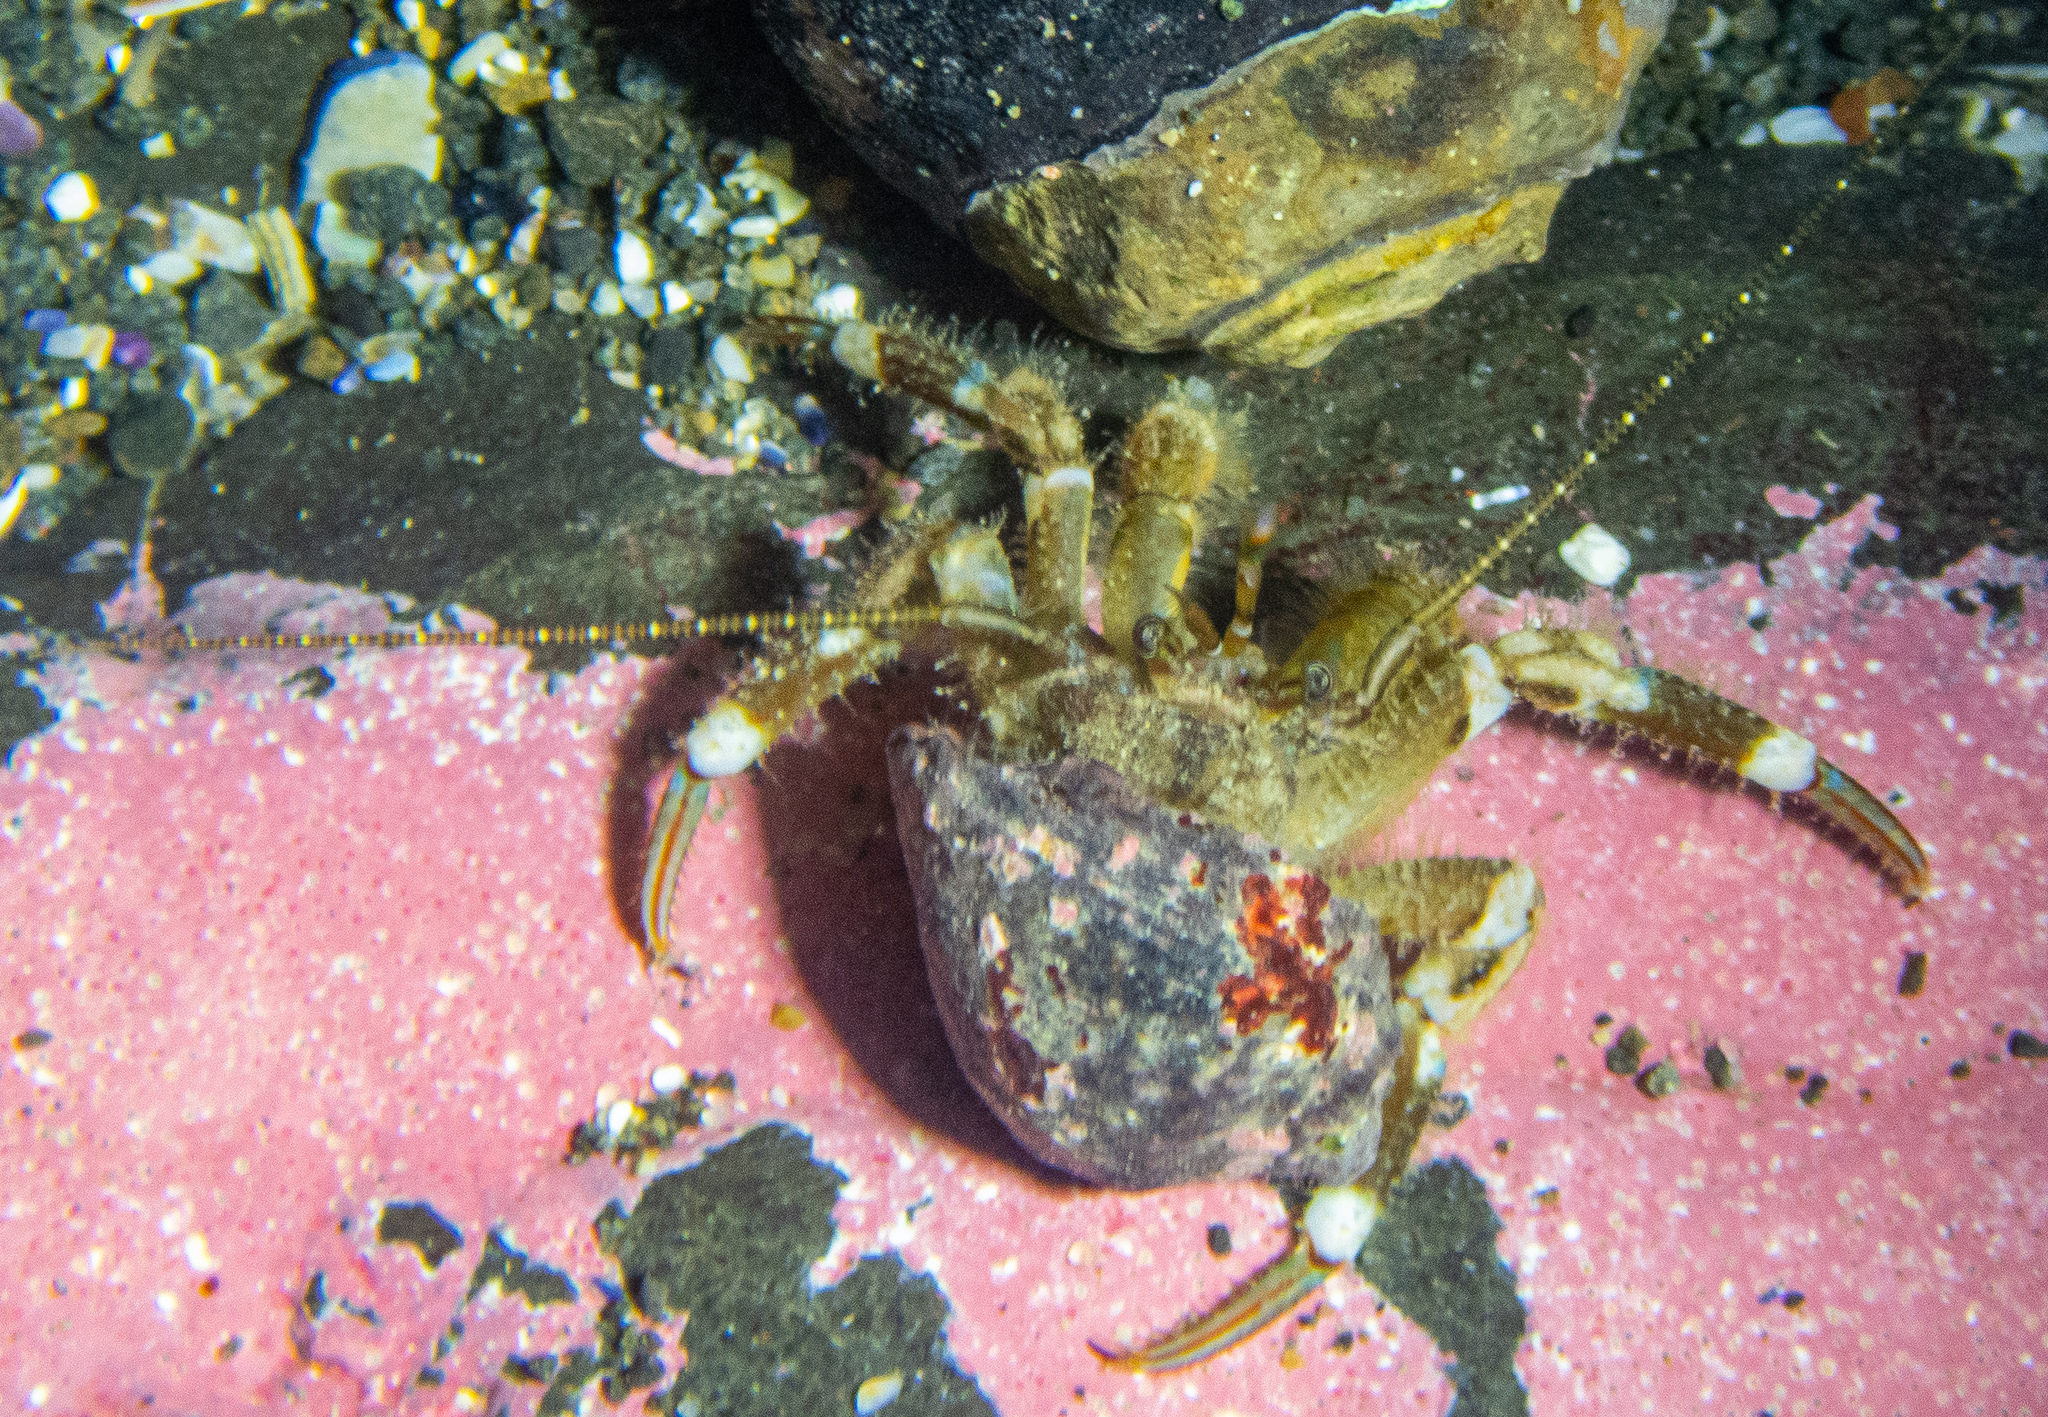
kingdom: Animalia
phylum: Arthropoda
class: Malacostraca
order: Decapoda
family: Paguridae
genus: Pagurus
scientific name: Pagurus hirsutiusculus
